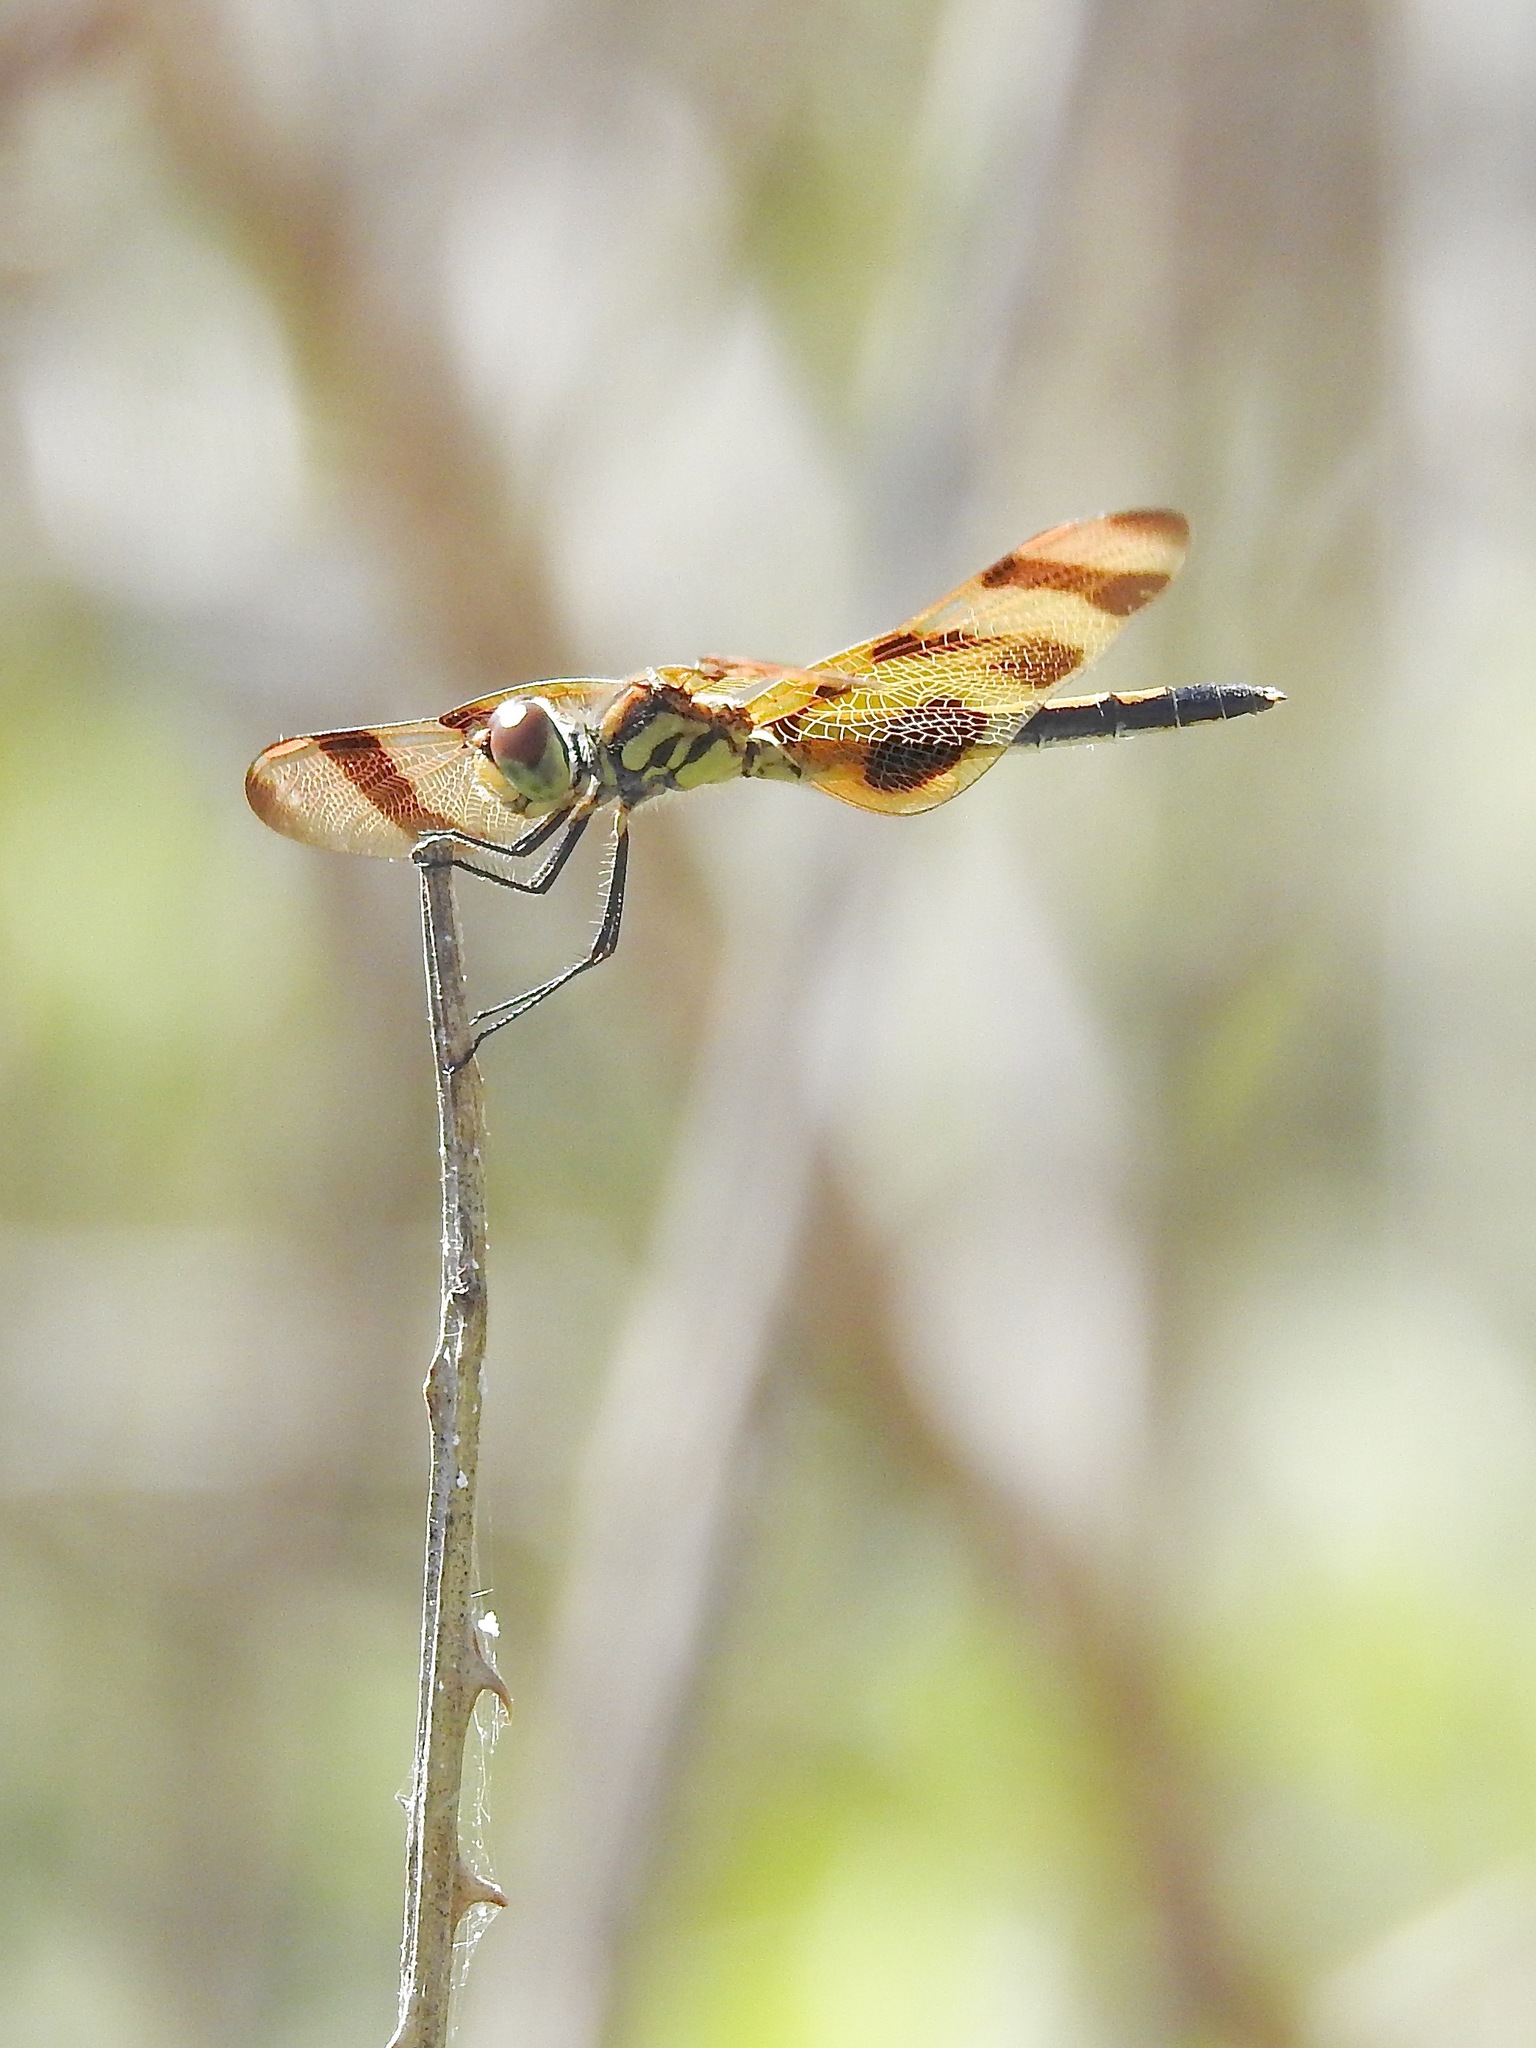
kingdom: Animalia
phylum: Arthropoda
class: Insecta
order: Odonata
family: Libellulidae
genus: Celithemis
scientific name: Celithemis eponina
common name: Halloween pennant
